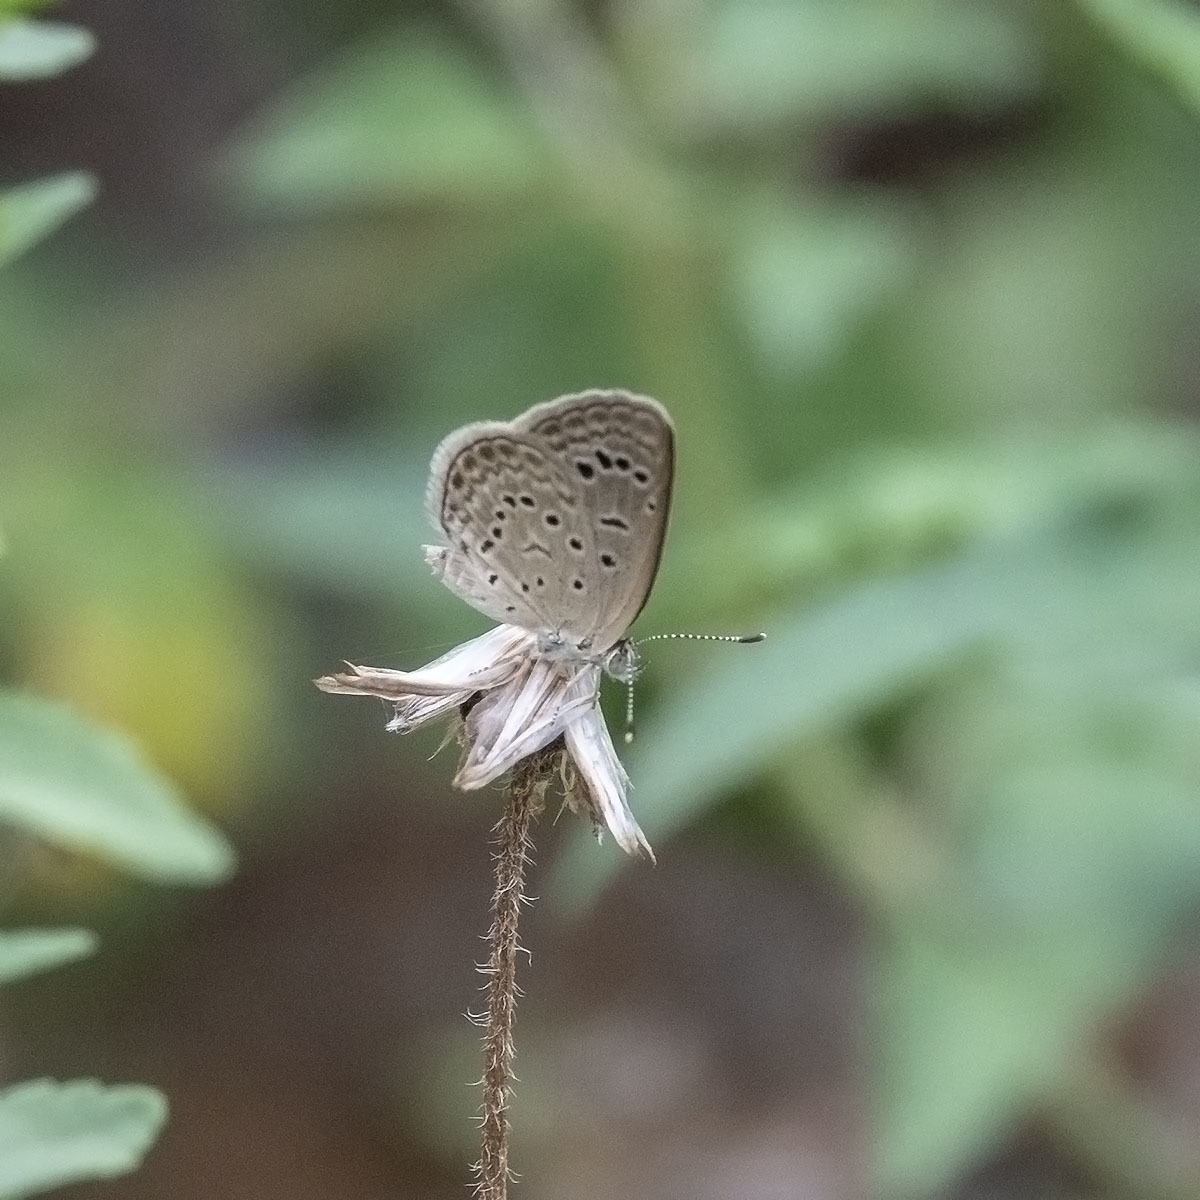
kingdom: Animalia
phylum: Arthropoda
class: Insecta
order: Lepidoptera
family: Lycaenidae
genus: Zizeeria
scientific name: Zizeeria karsandra
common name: Dark grass blue
